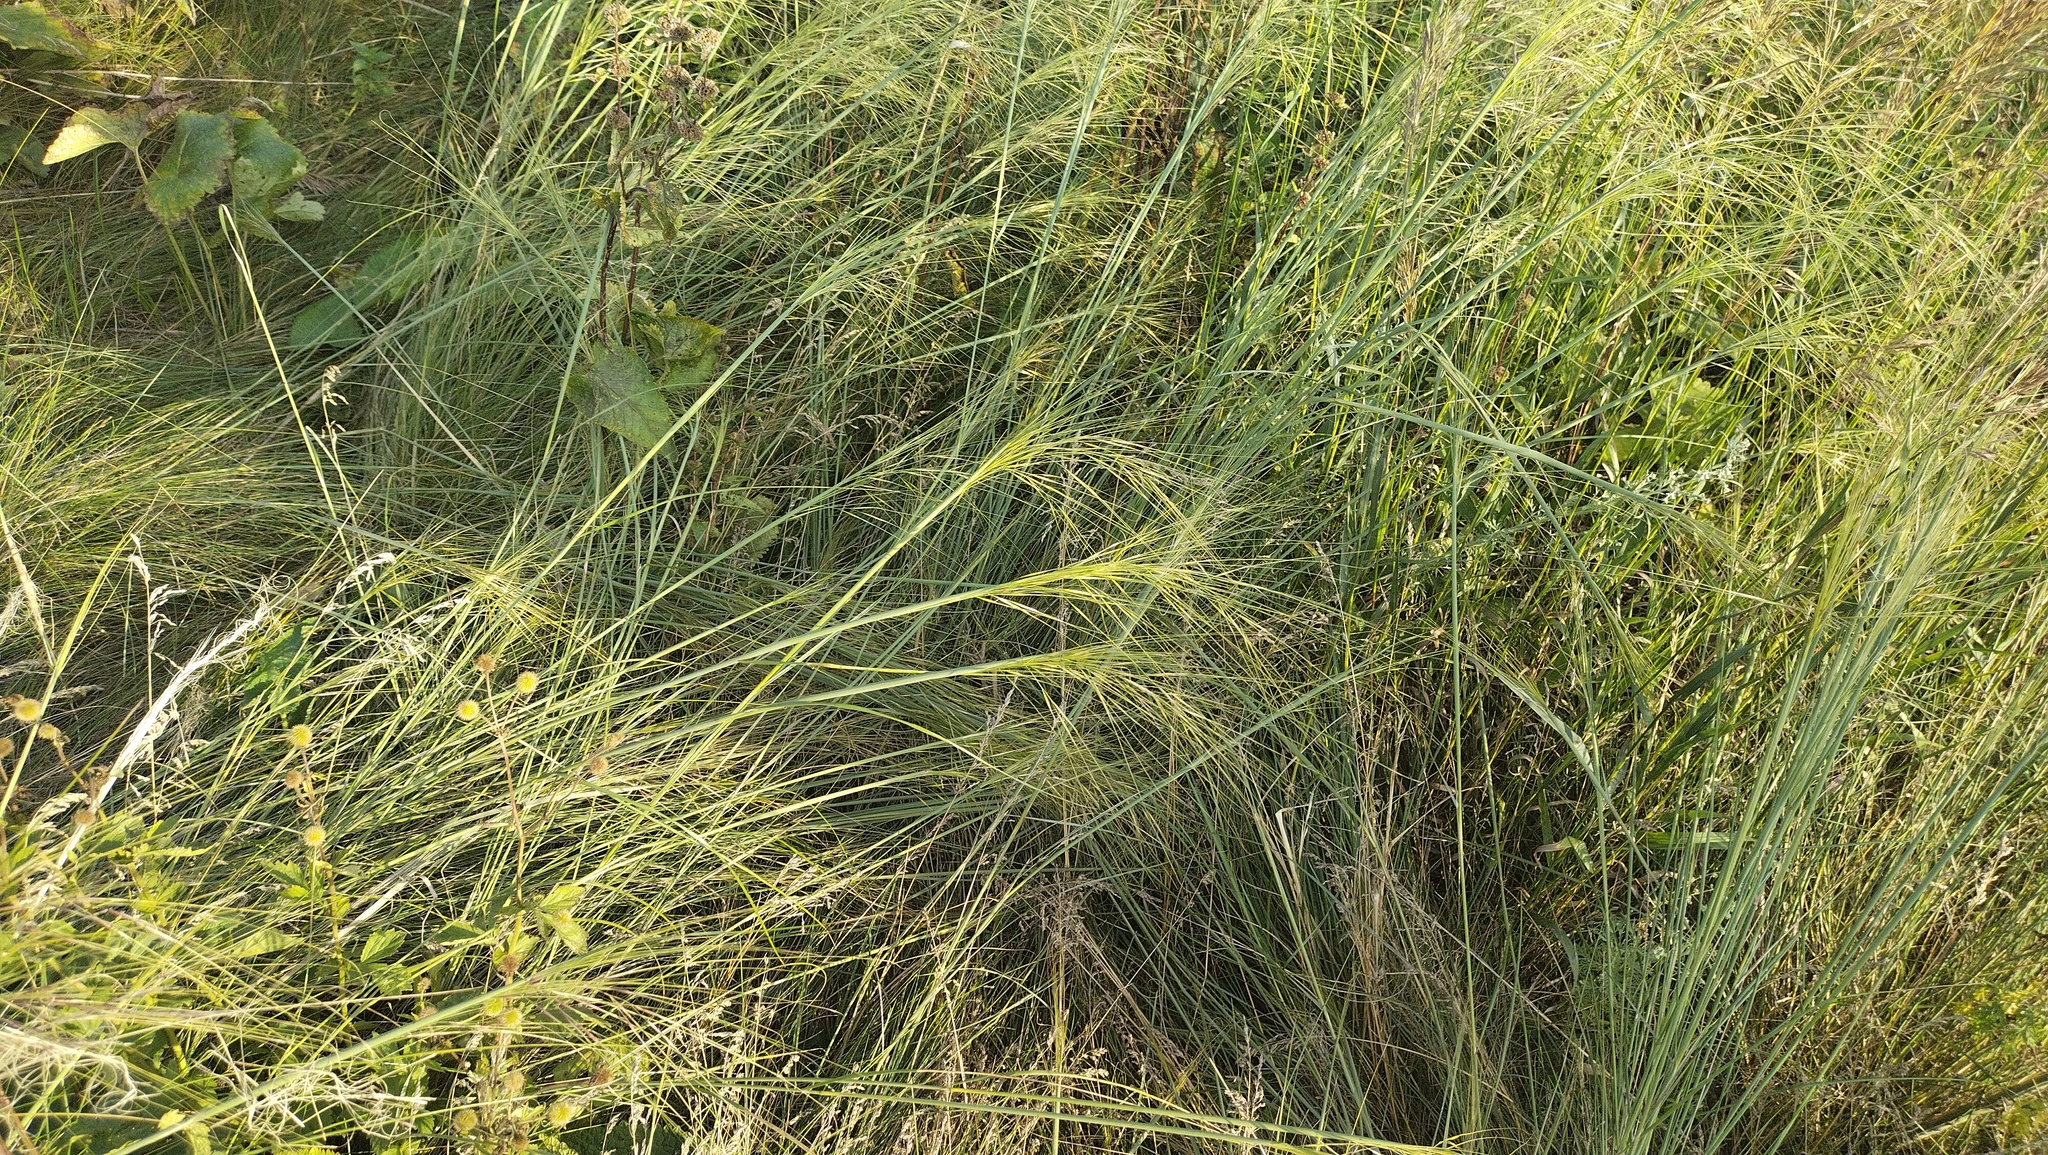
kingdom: Plantae
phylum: Tracheophyta
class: Liliopsida
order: Poales
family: Poaceae
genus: Stipa
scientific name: Stipa capillata
